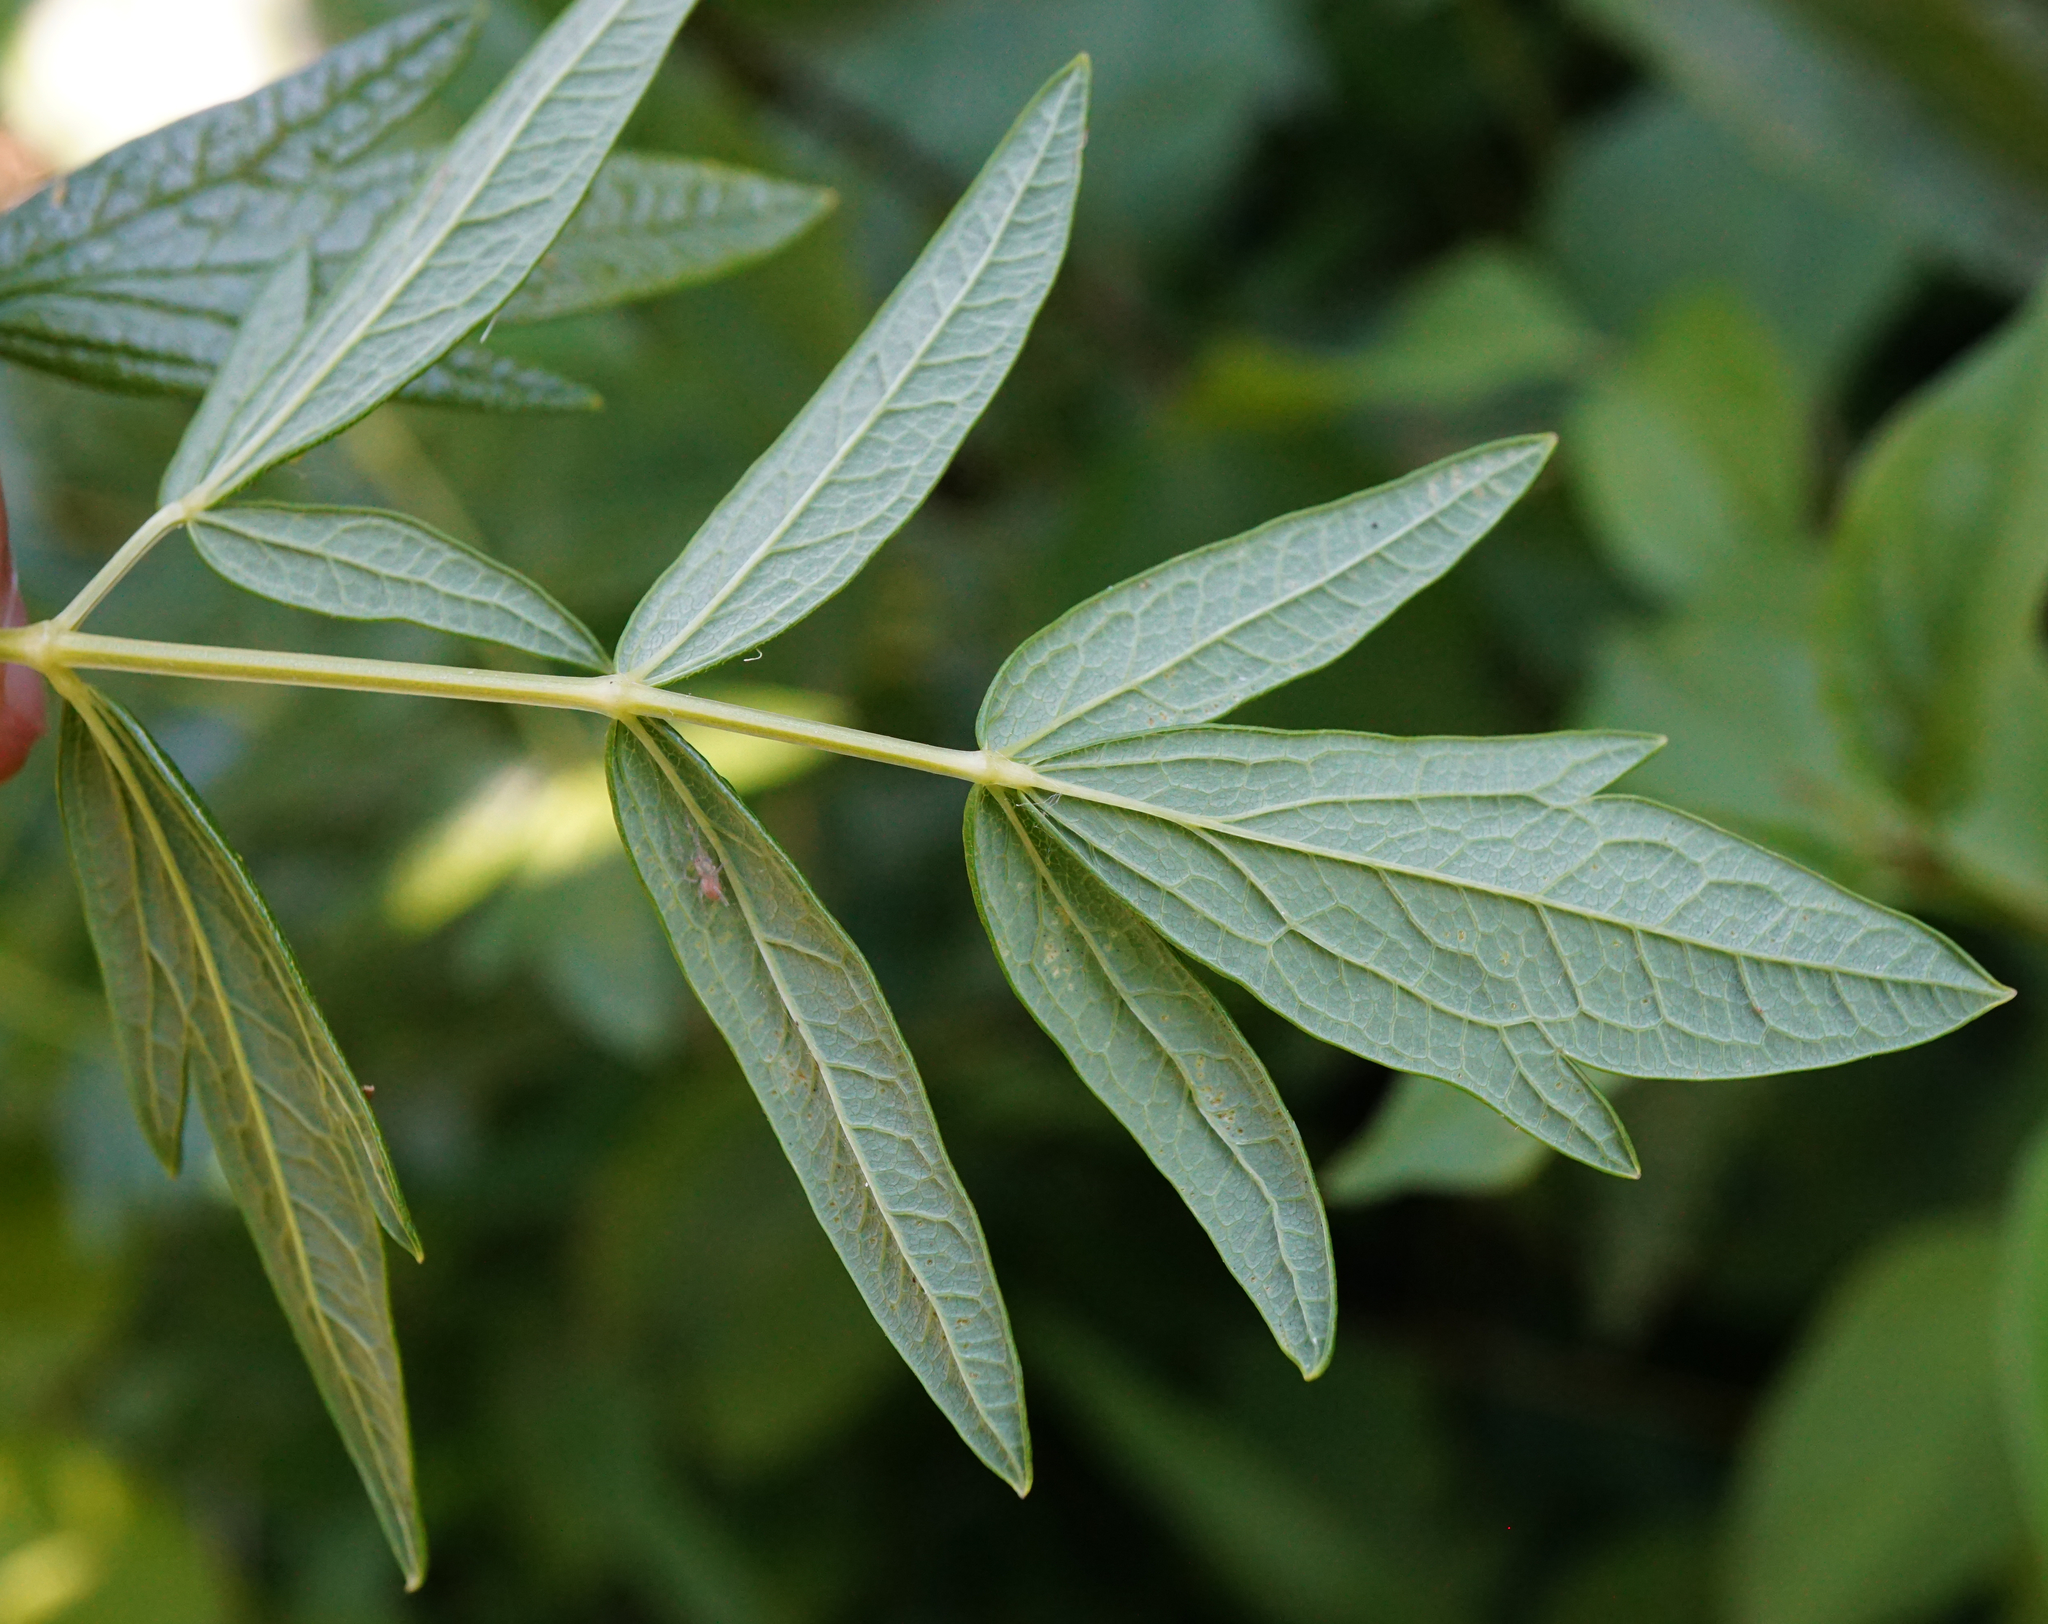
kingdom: Plantae
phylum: Tracheophyta
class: Magnoliopsida
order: Ranunculales
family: Ranunculaceae
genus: Thalictrum
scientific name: Thalictrum lucidum
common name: Shining meadow-rue
